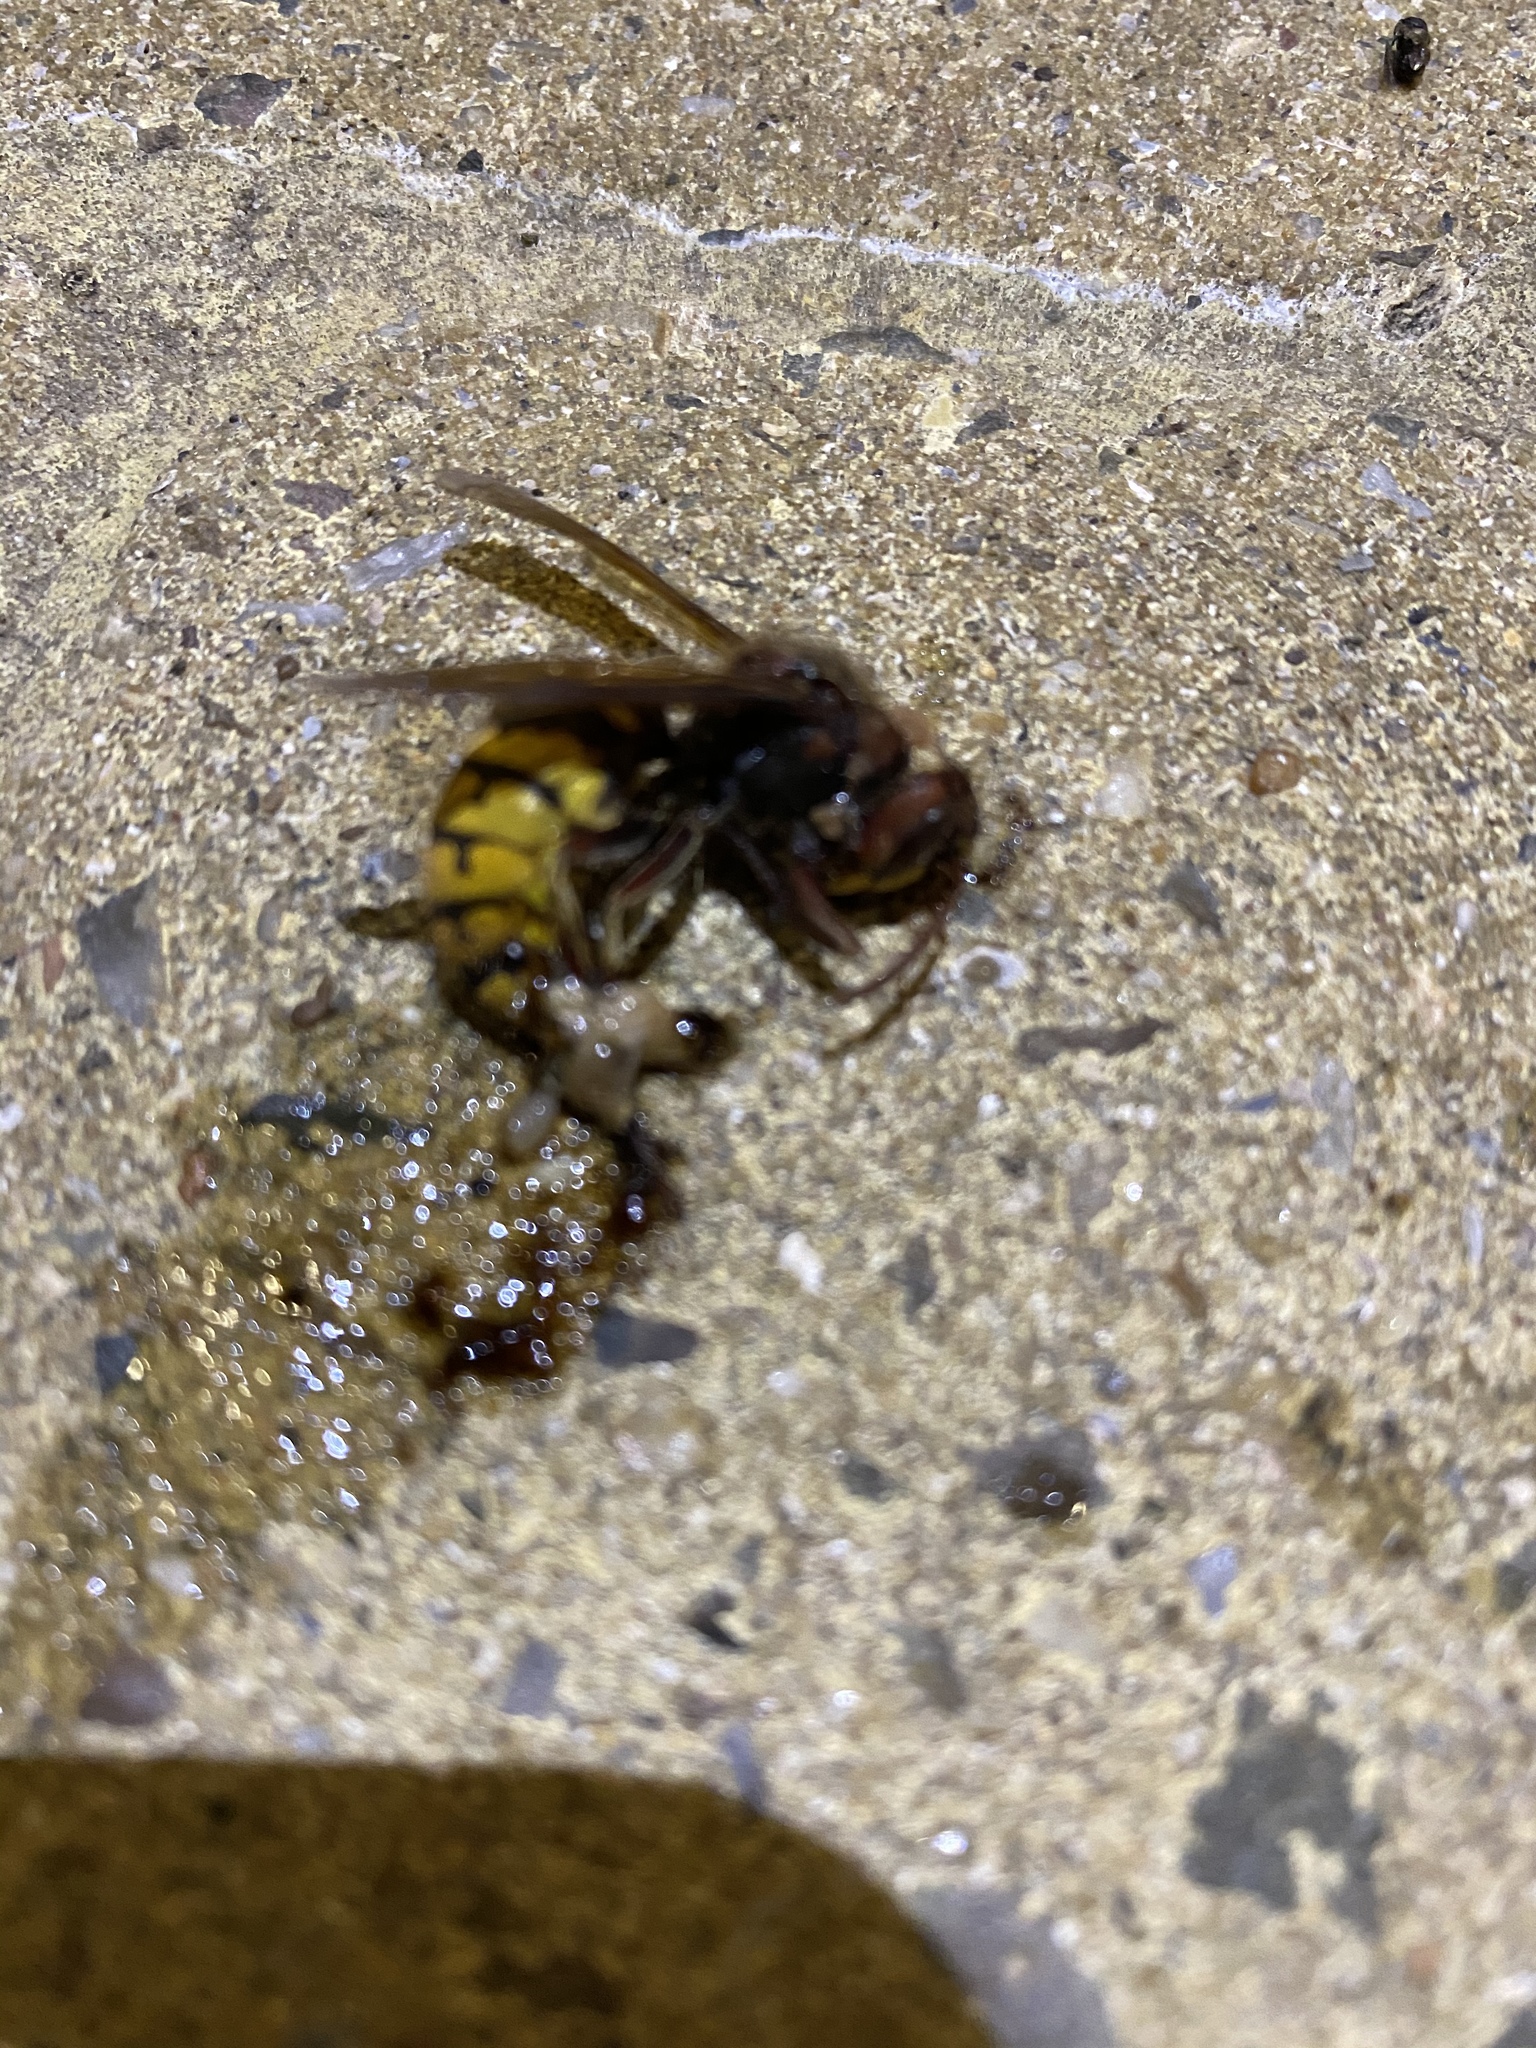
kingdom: Animalia
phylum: Arthropoda
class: Insecta
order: Hymenoptera
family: Vespidae
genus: Vespa
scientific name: Vespa crabro
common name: Hornet
